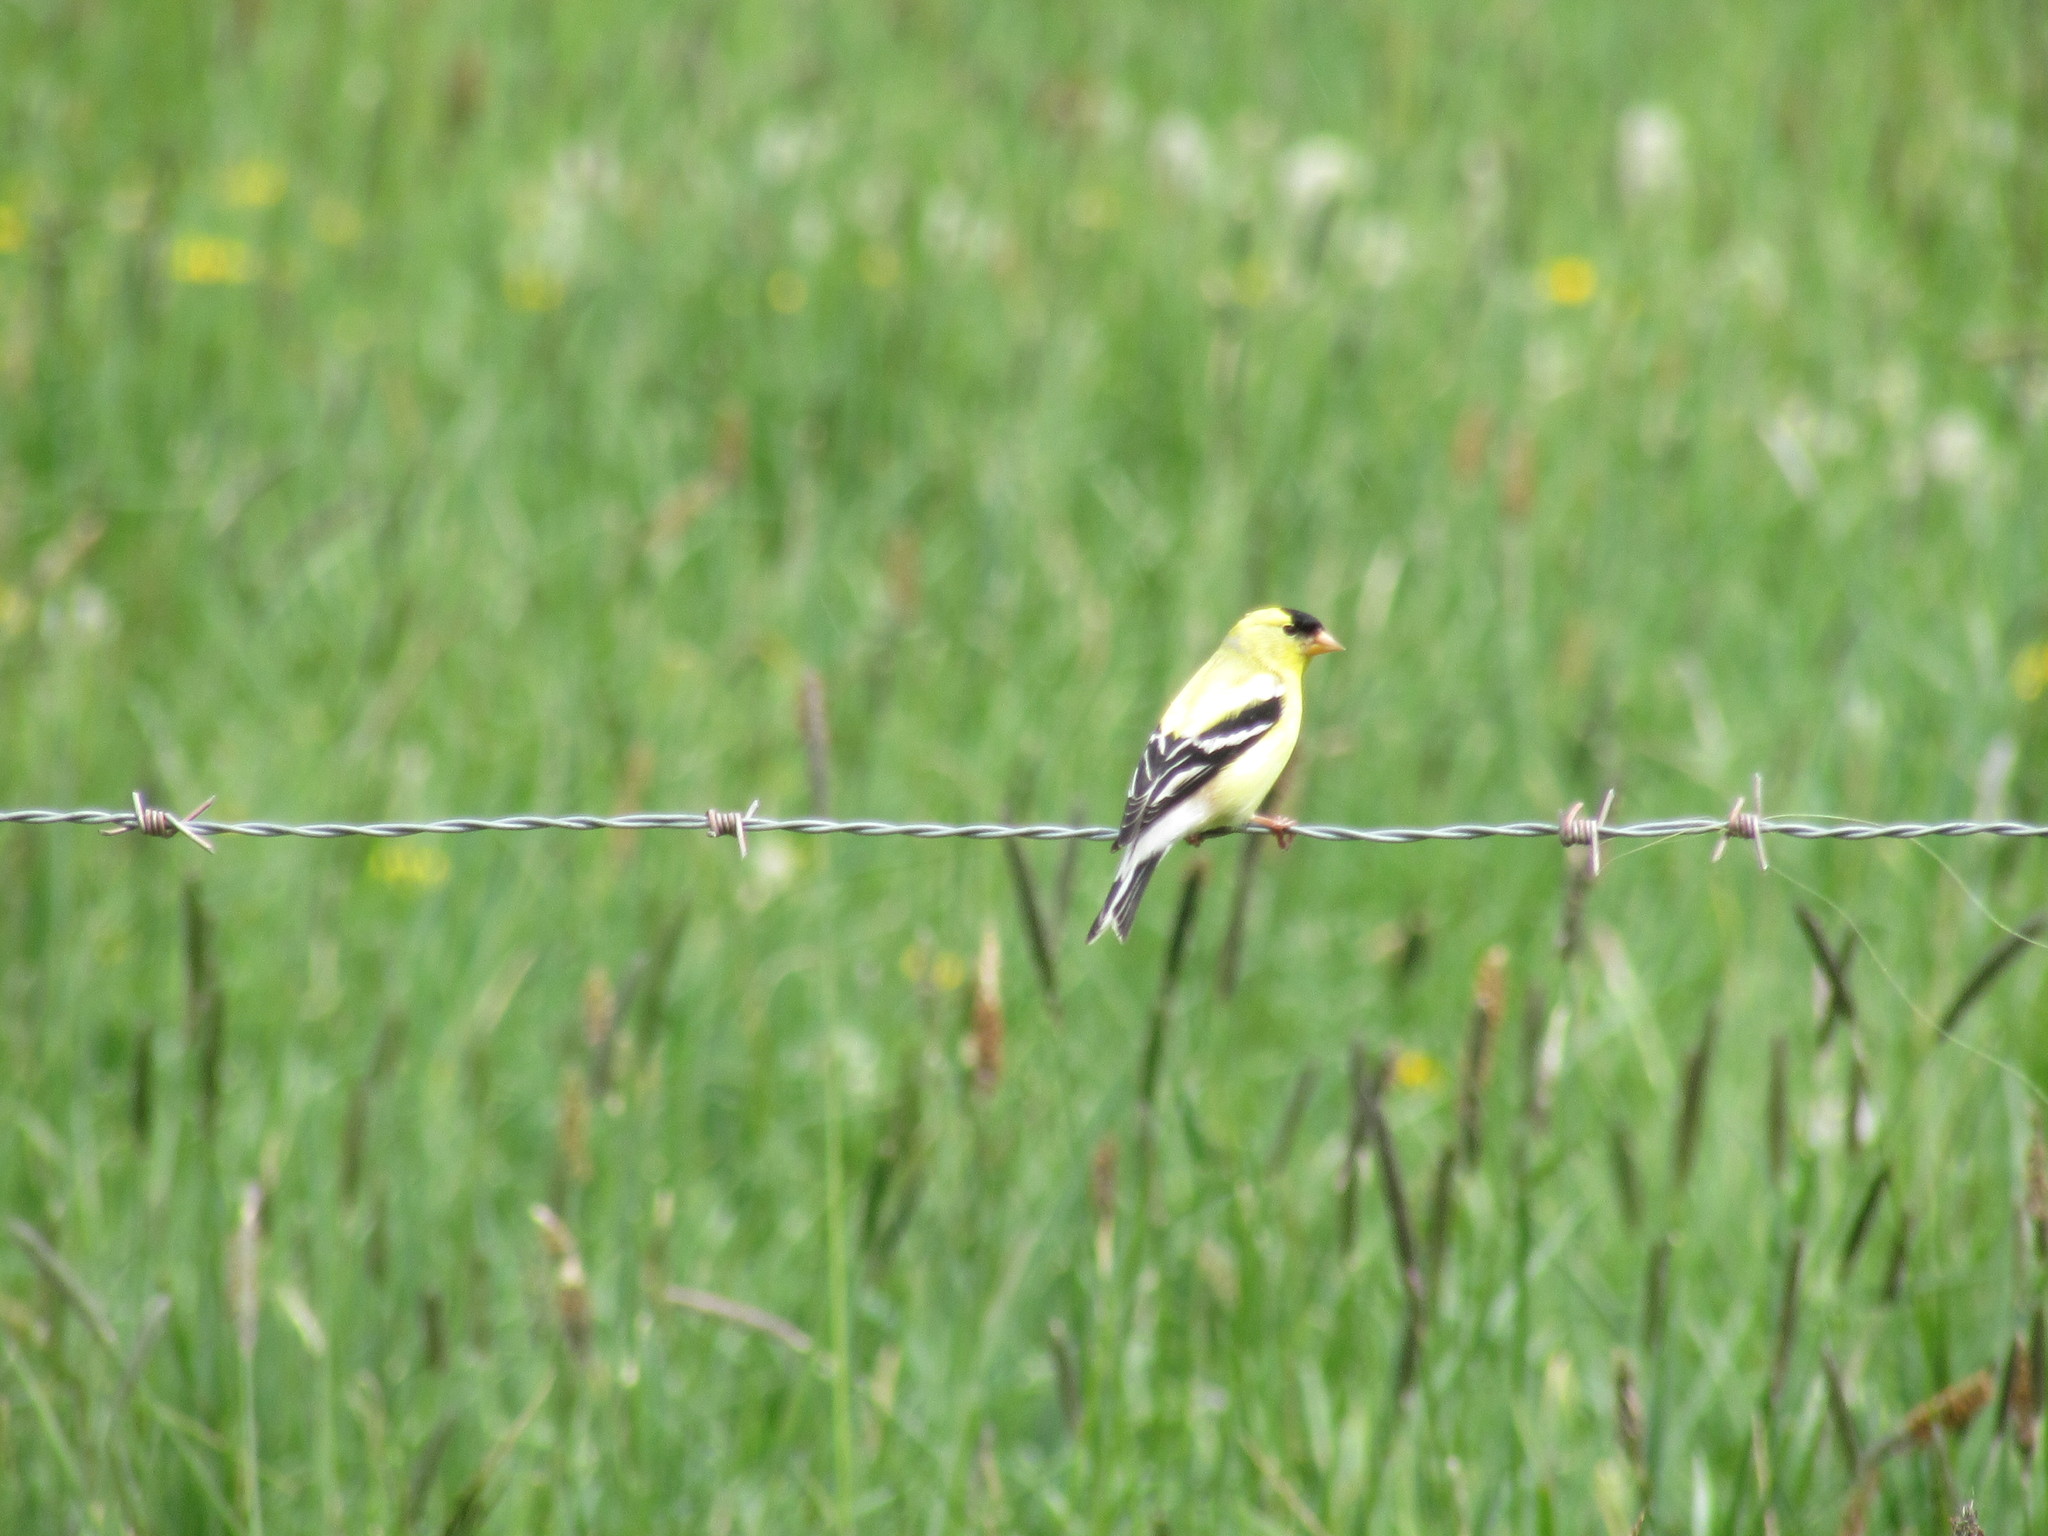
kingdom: Animalia
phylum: Chordata
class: Aves
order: Passeriformes
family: Fringillidae
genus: Spinus
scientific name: Spinus tristis
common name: American goldfinch
